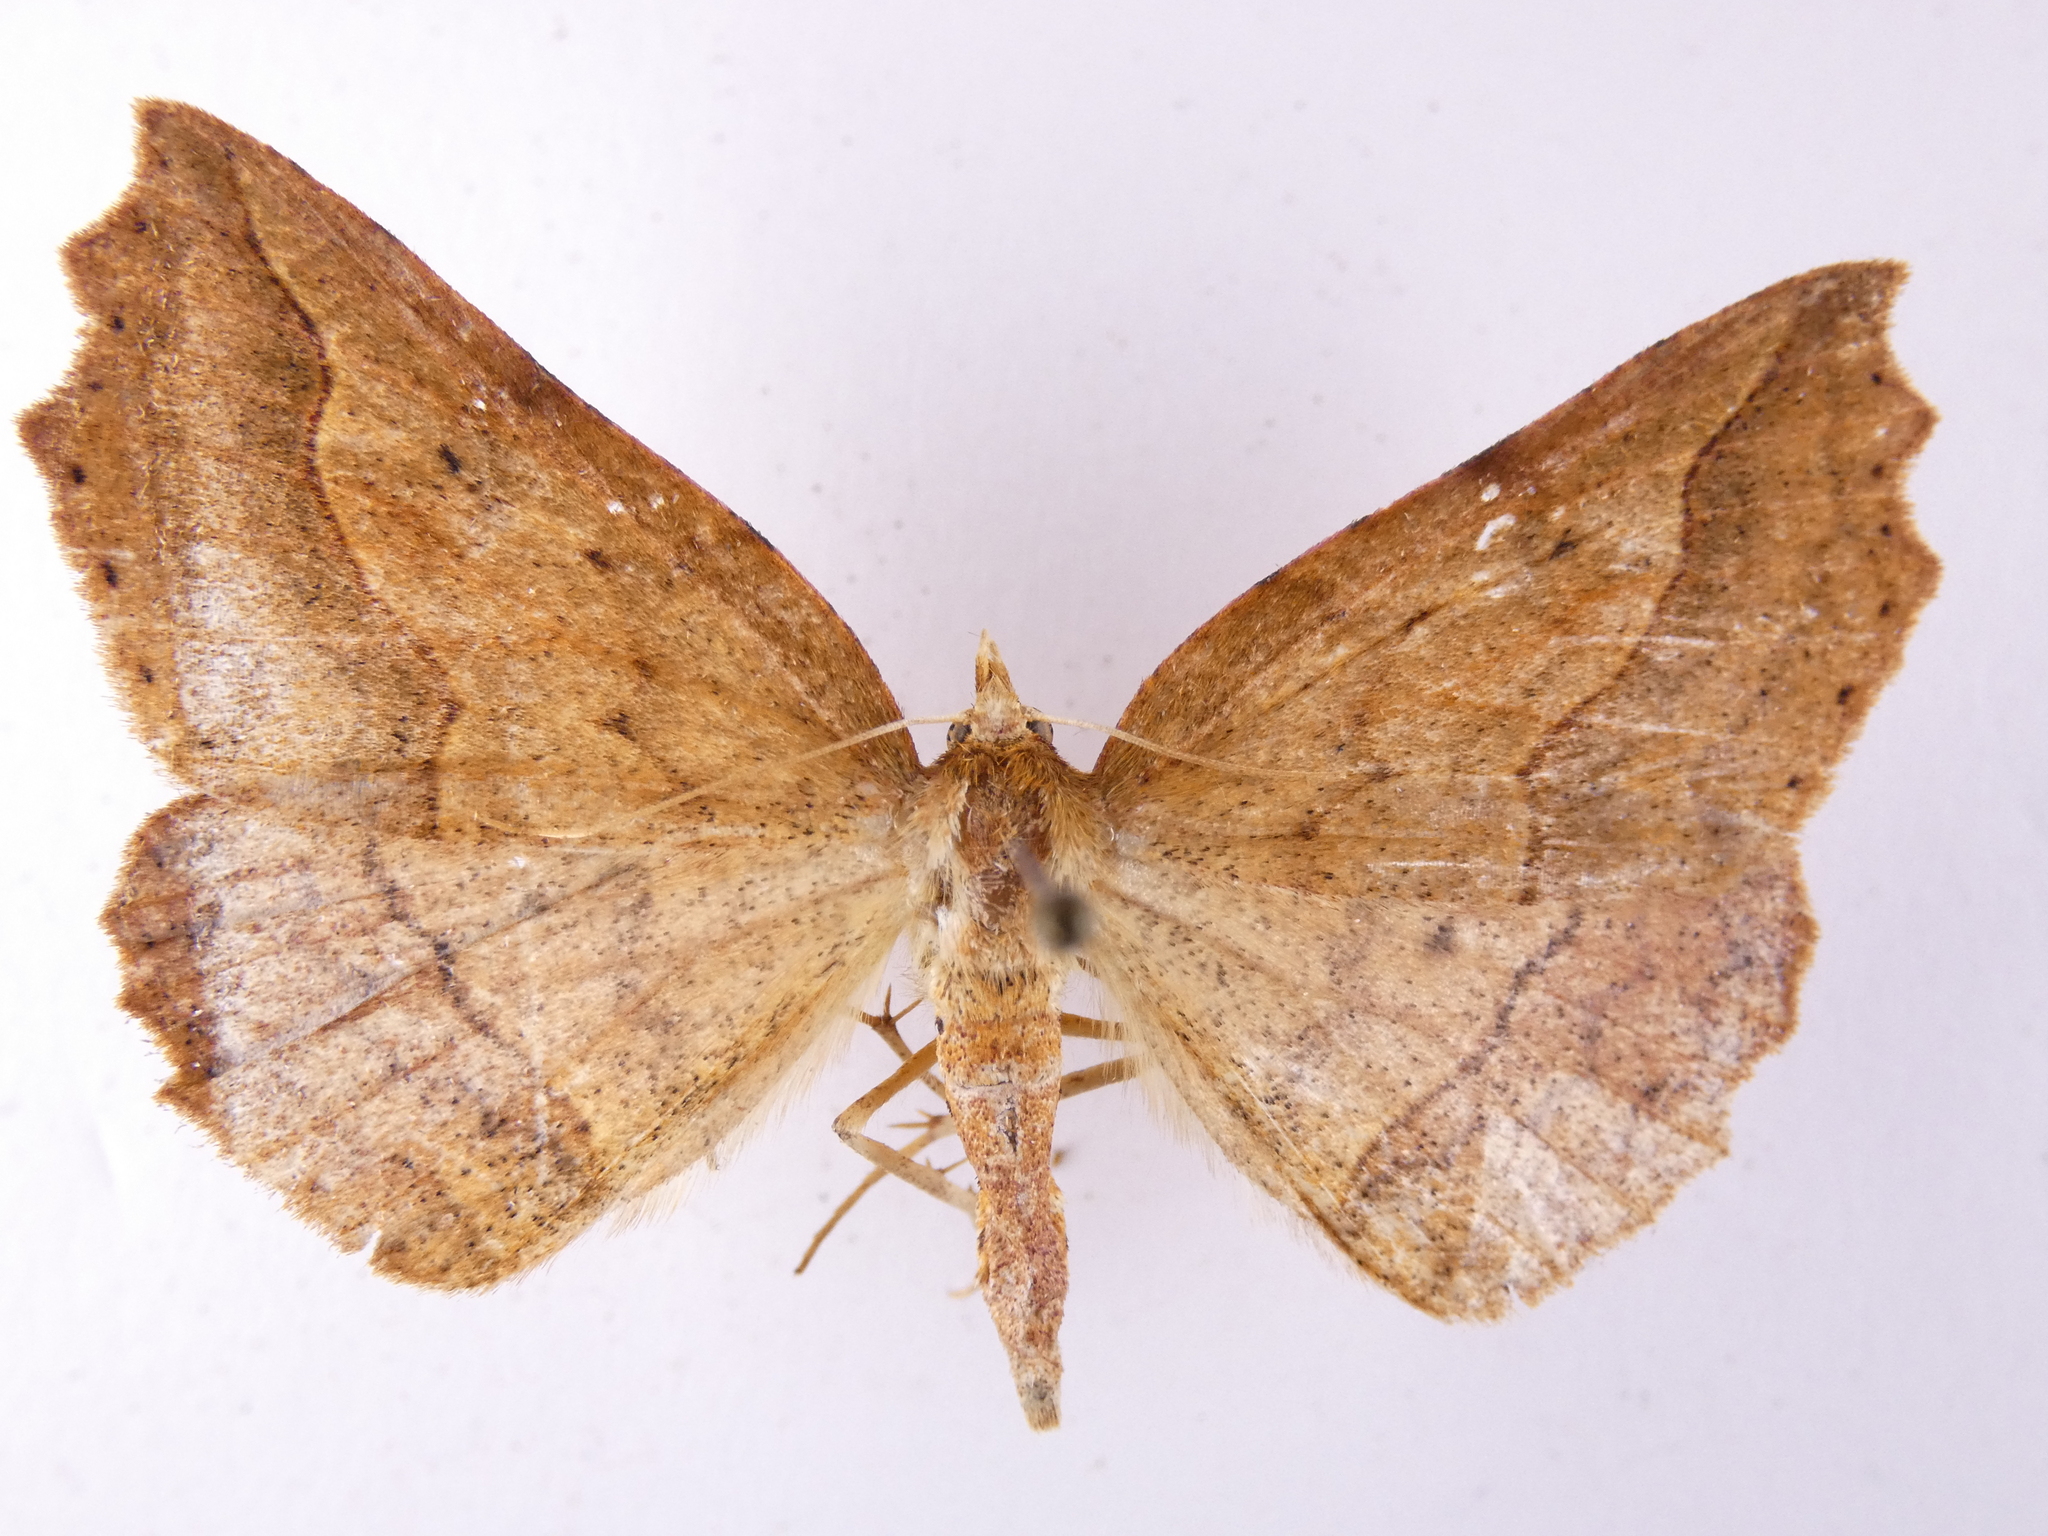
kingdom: Animalia
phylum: Arthropoda
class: Insecta
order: Lepidoptera
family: Geometridae
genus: Ischalis
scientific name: Ischalis variabilis
